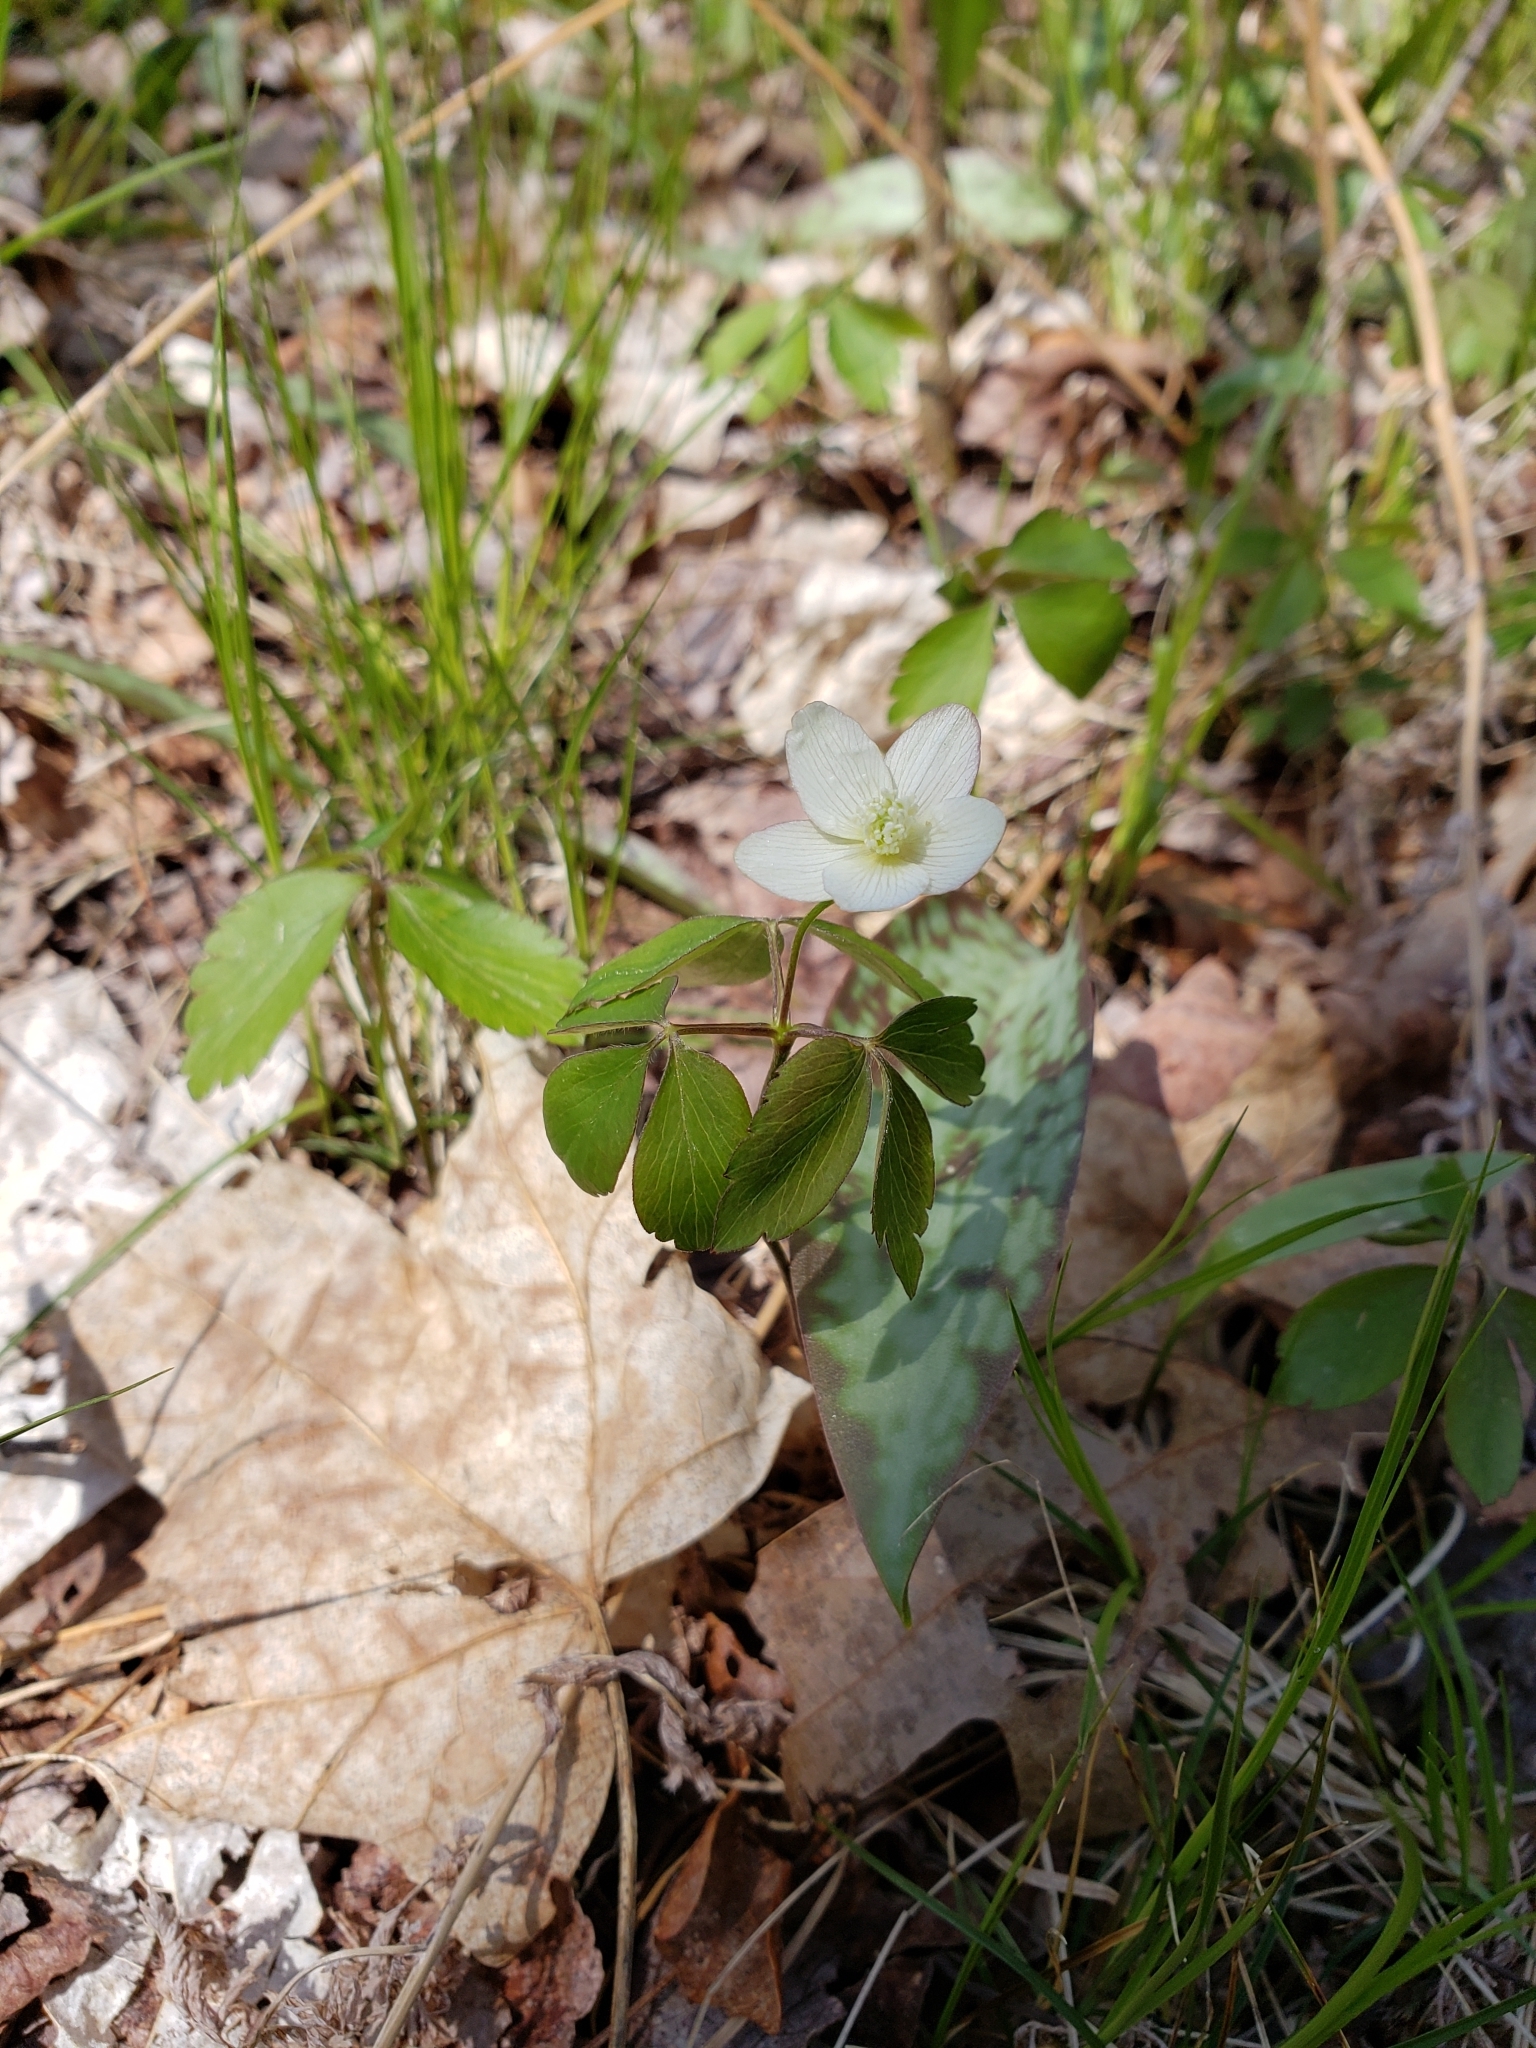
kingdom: Plantae
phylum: Tracheophyta
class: Magnoliopsida
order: Ranunculales
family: Ranunculaceae
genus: Anemone
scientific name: Anemone quinquefolia
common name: Wood anemone
